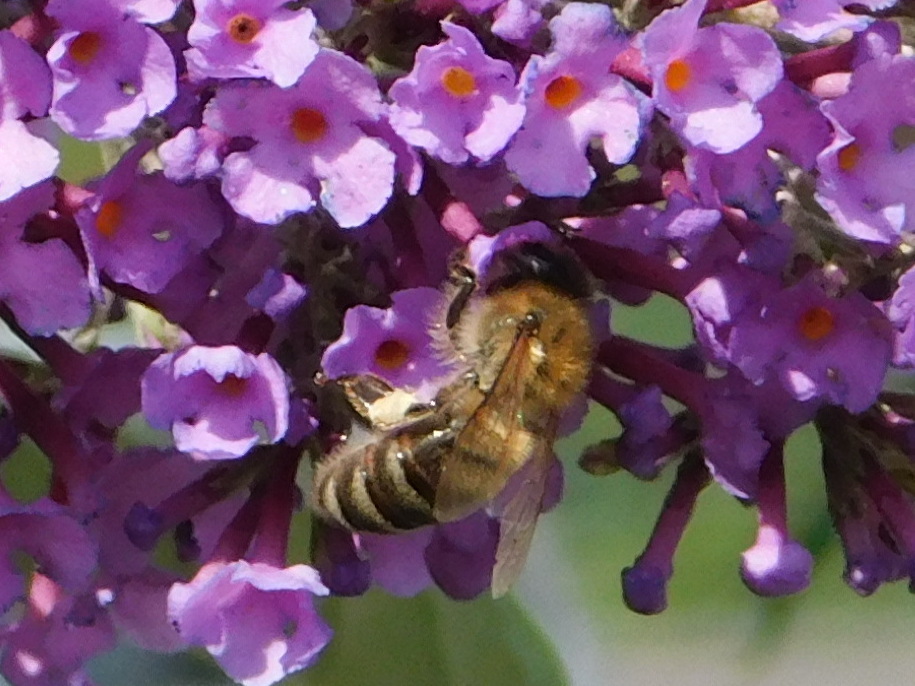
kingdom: Animalia
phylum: Arthropoda
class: Insecta
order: Hymenoptera
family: Apidae
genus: Apis
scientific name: Apis mellifera
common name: Honey bee
